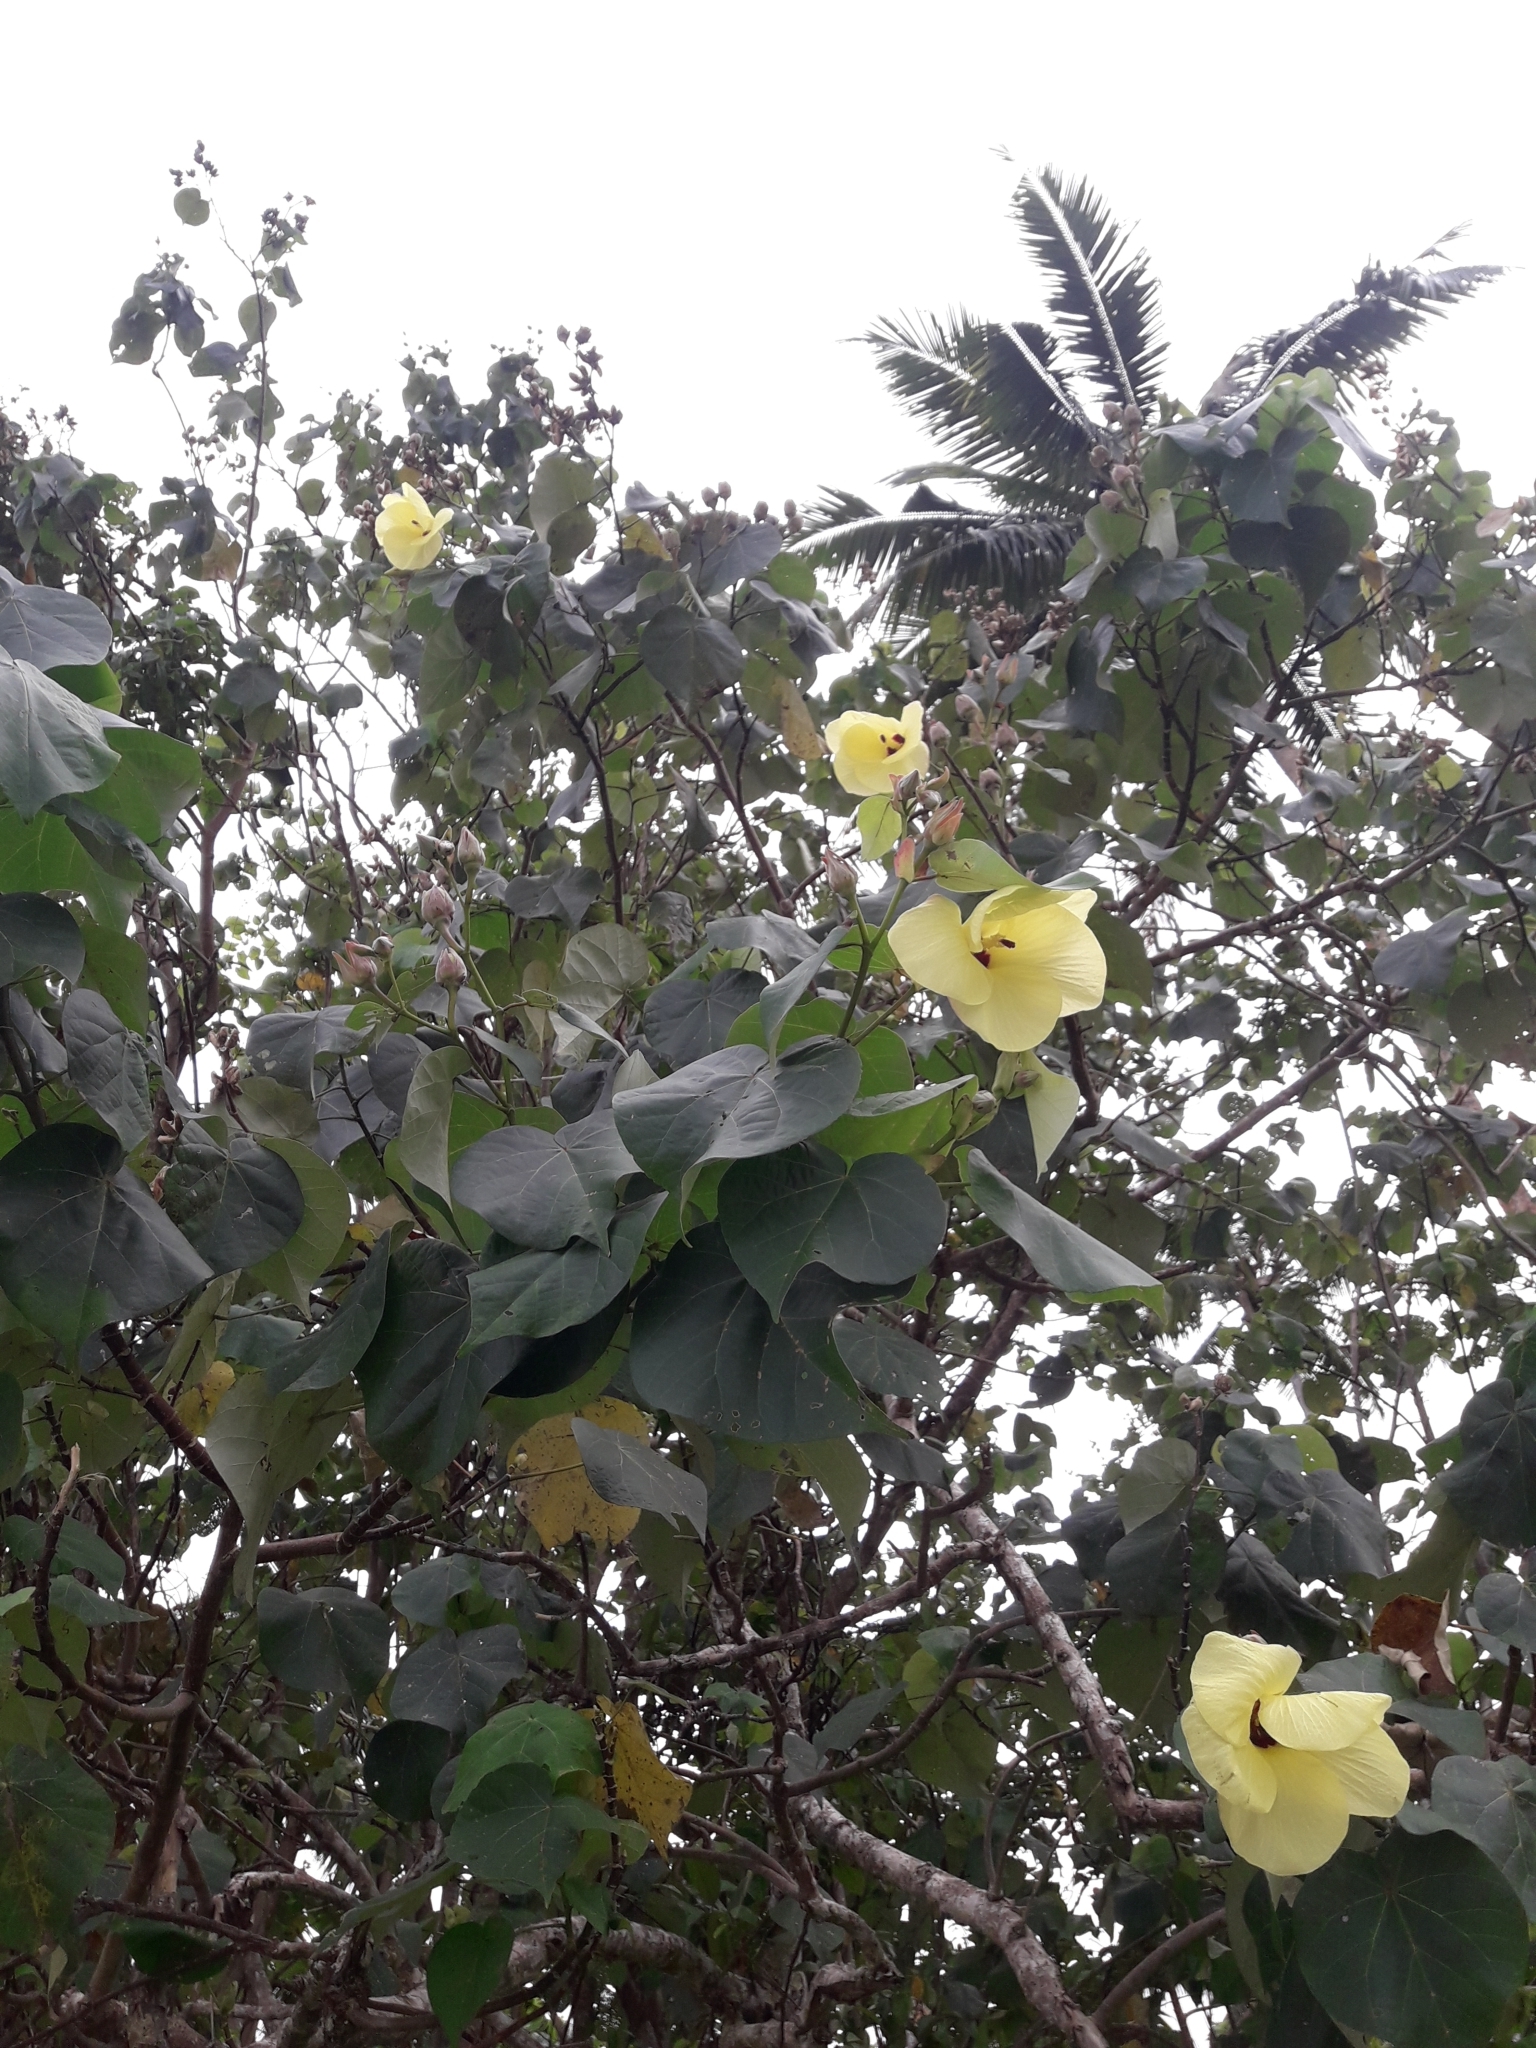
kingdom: Plantae
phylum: Tracheophyta
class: Magnoliopsida
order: Malvales
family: Malvaceae
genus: Talipariti
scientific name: Talipariti tiliaceum
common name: Sea hibiscus
